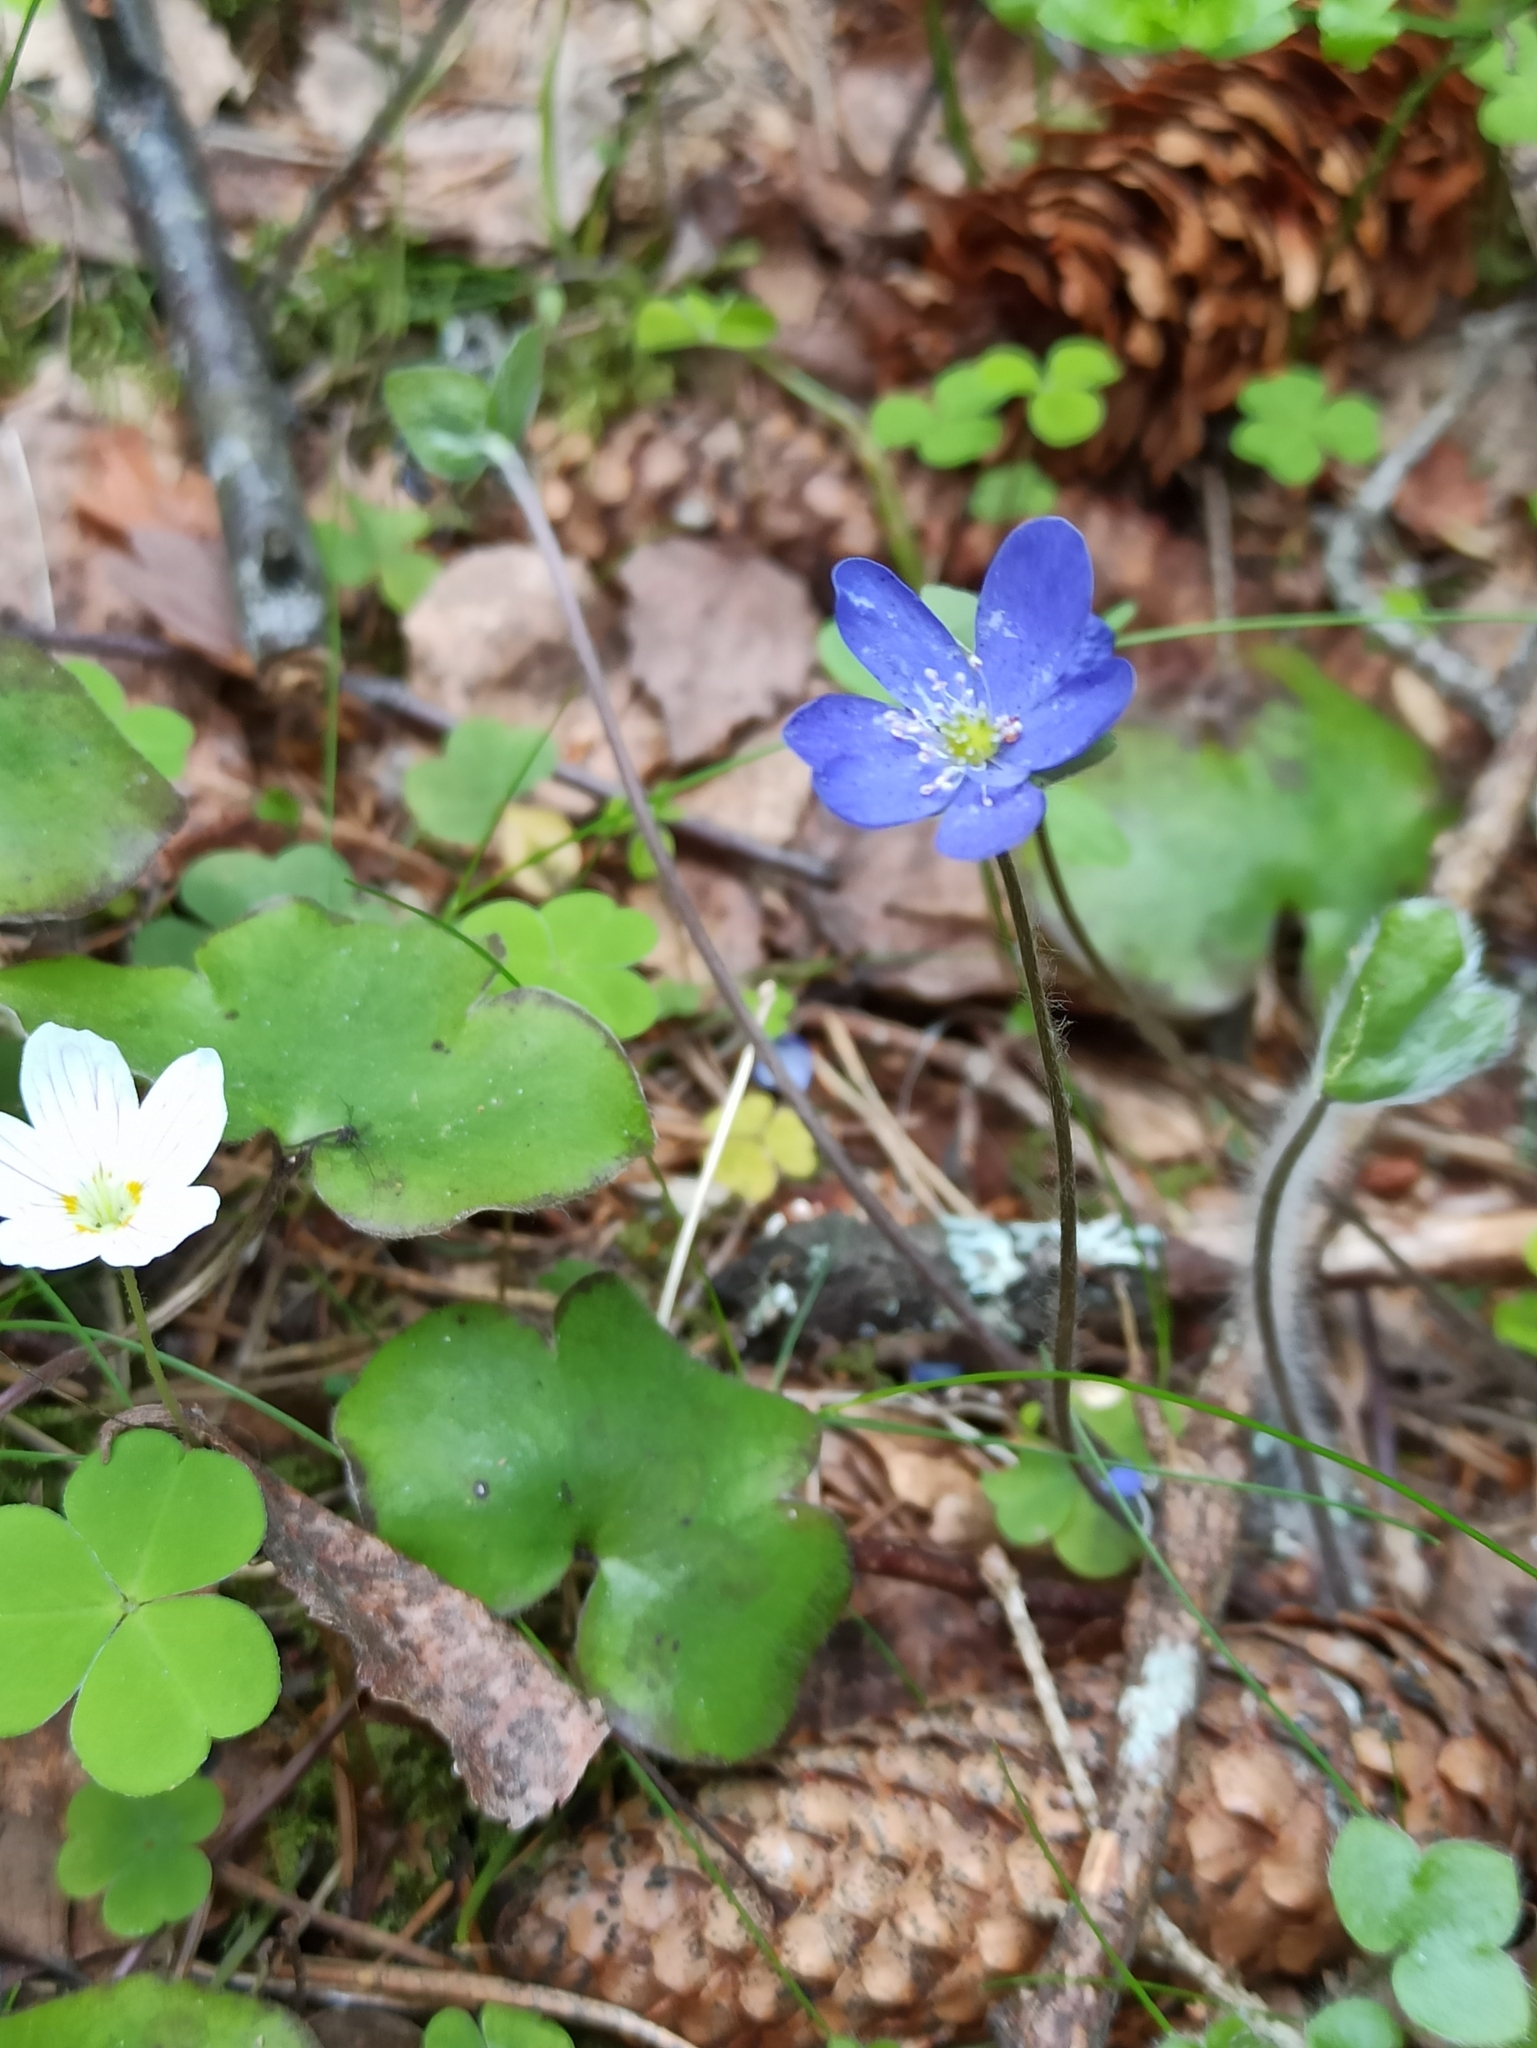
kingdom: Plantae
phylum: Tracheophyta
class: Magnoliopsida
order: Ranunculales
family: Ranunculaceae
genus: Hepatica
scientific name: Hepatica nobilis
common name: Liverleaf
